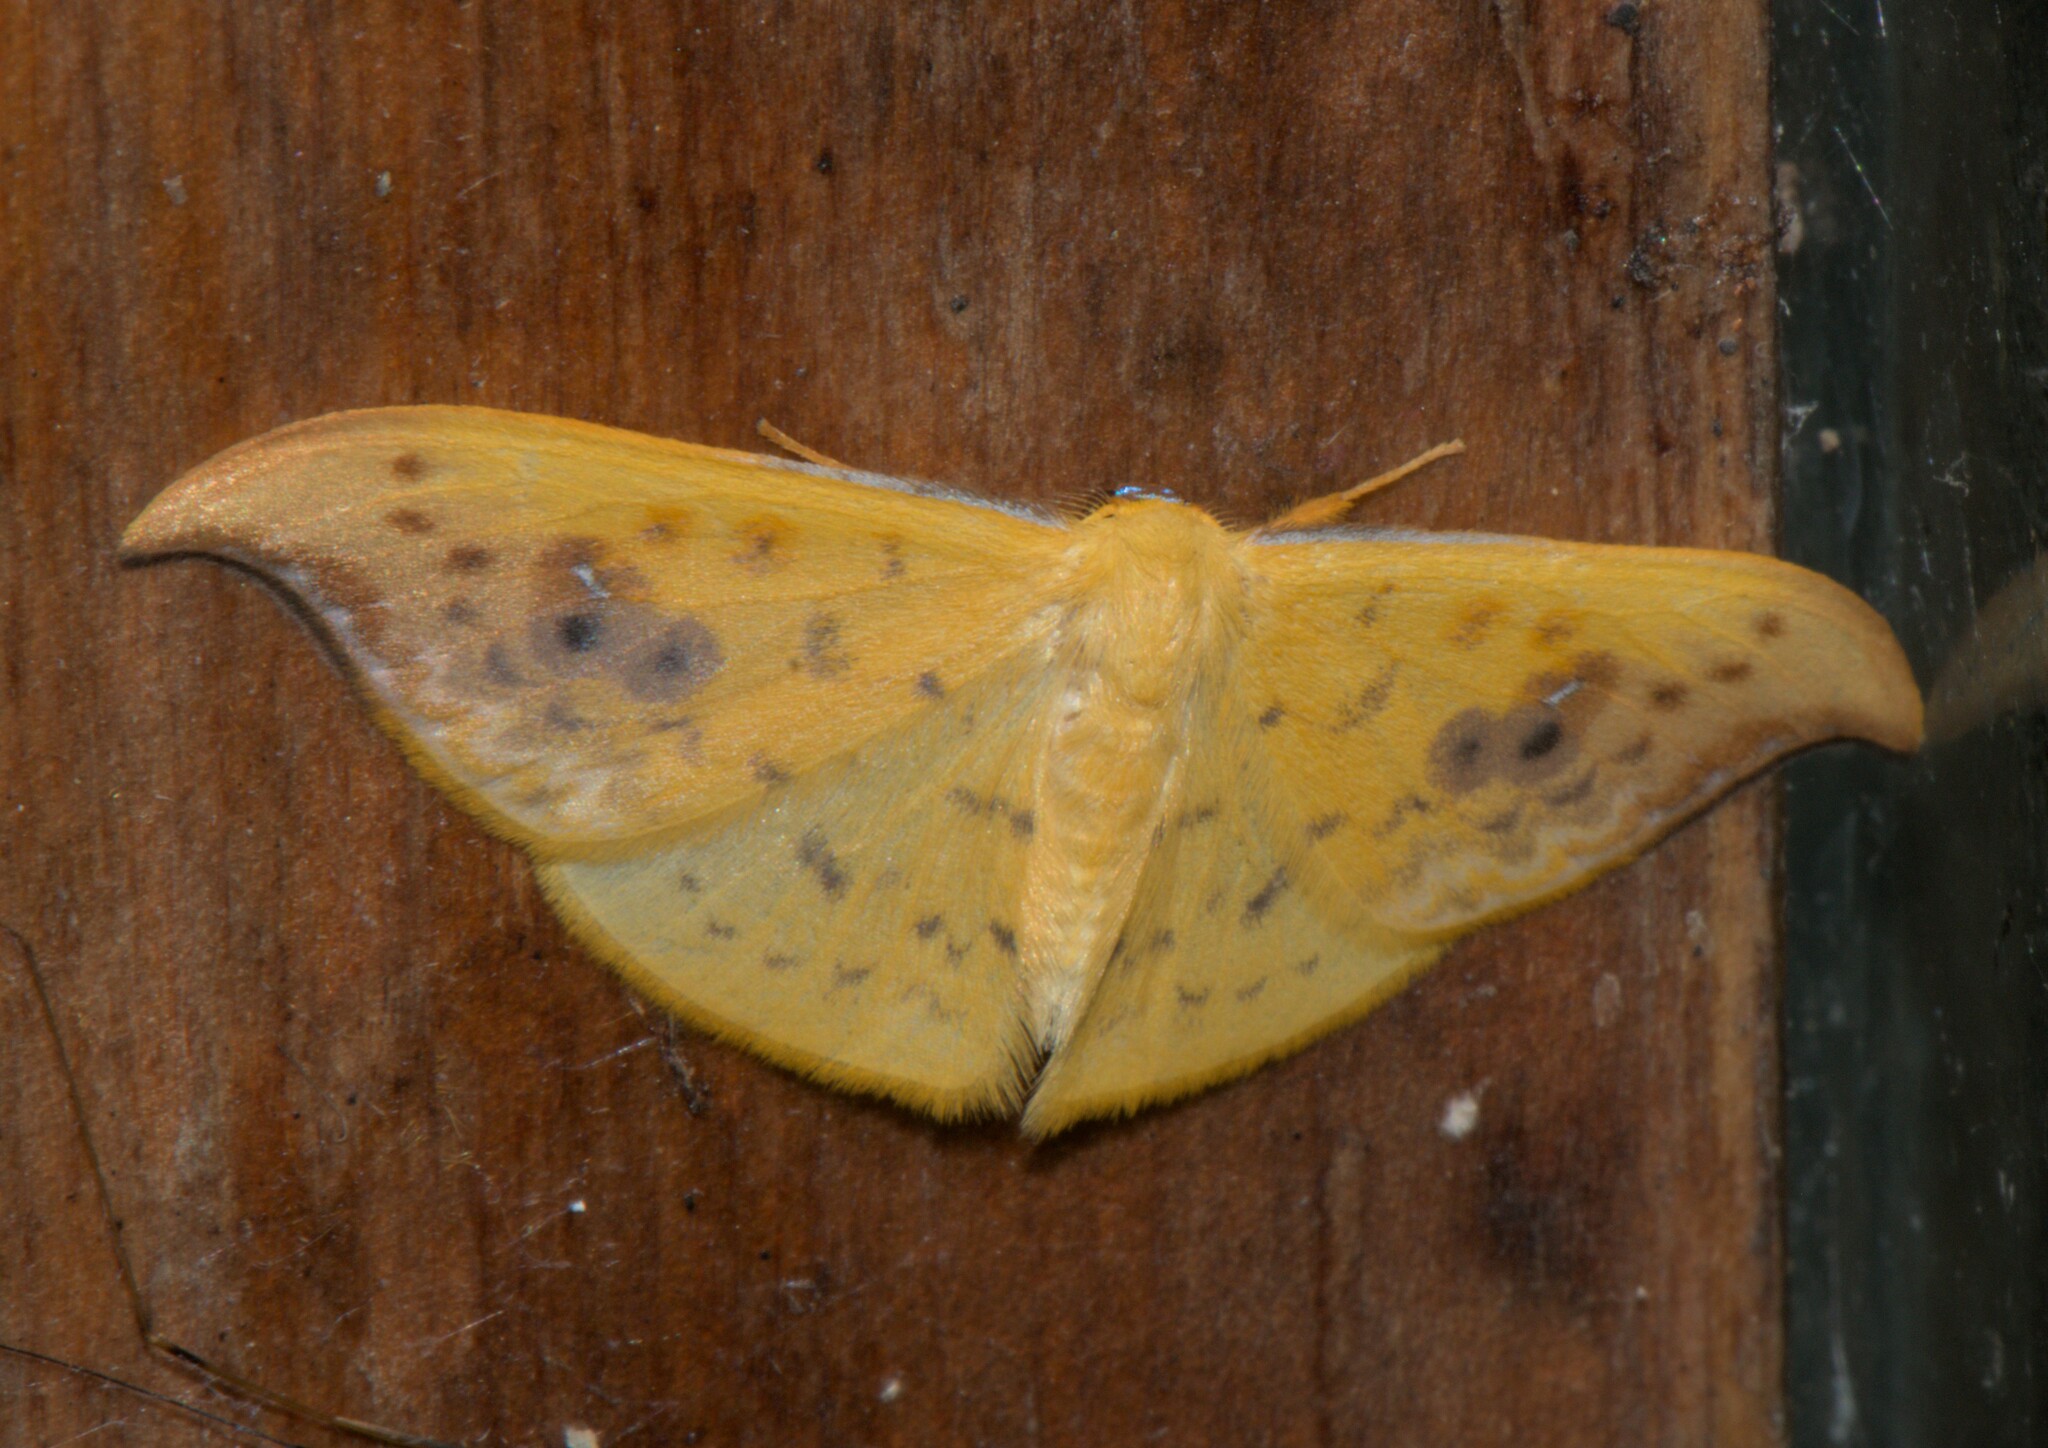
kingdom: Animalia
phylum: Arthropoda
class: Insecta
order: Lepidoptera
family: Drepanidae
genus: Tridrepana
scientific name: Tridrepana sadana
